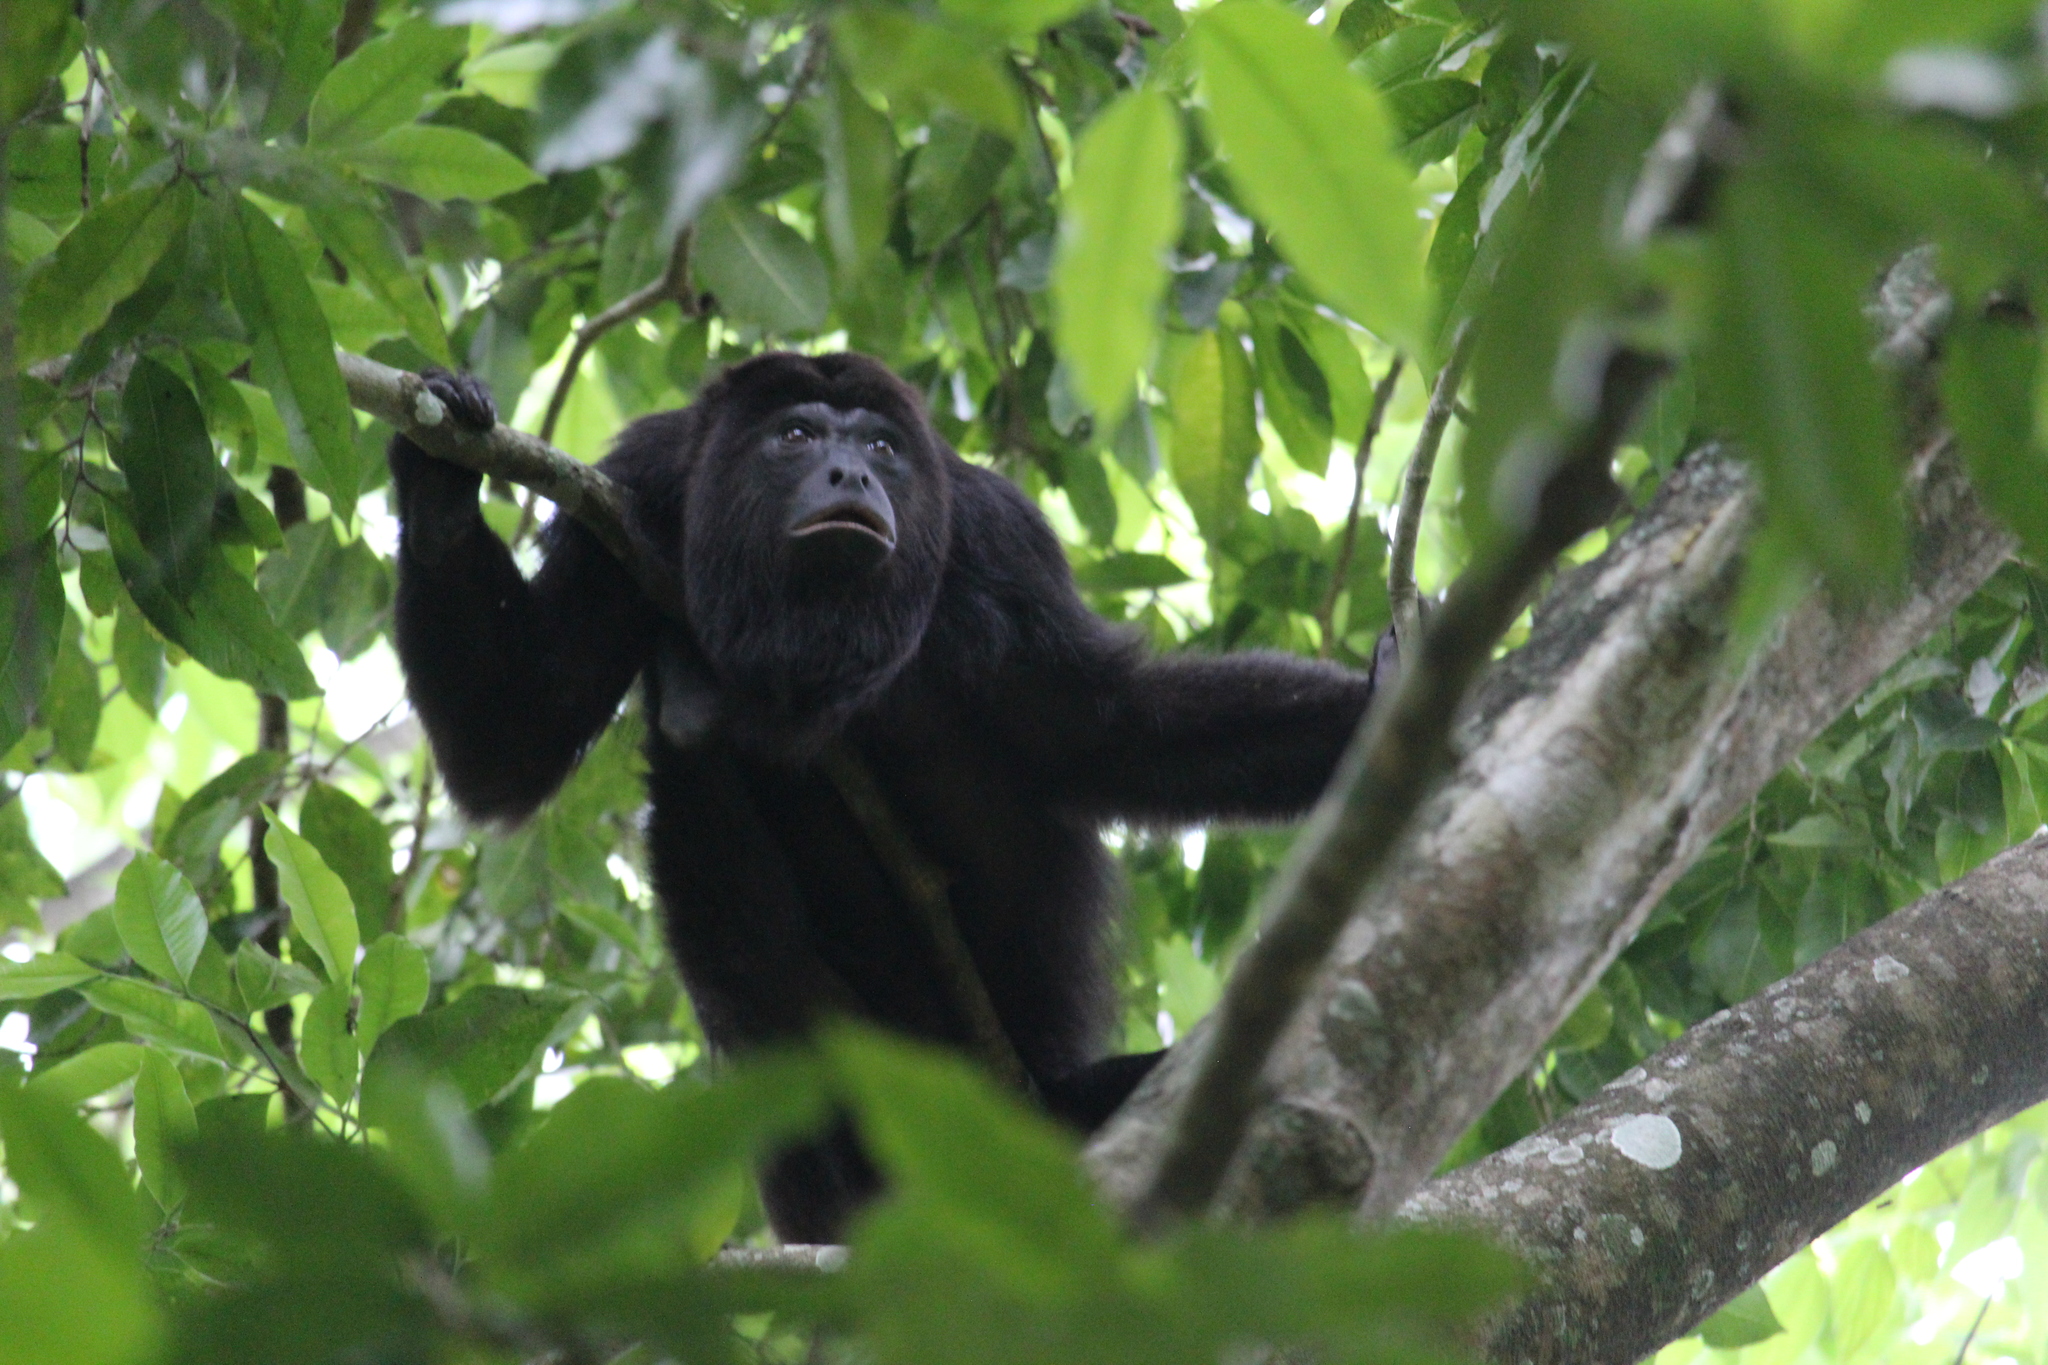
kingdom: Animalia
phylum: Chordata
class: Mammalia
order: Primates
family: Atelidae
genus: Alouatta
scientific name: Alouatta pigra
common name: Guatemalan black howler
